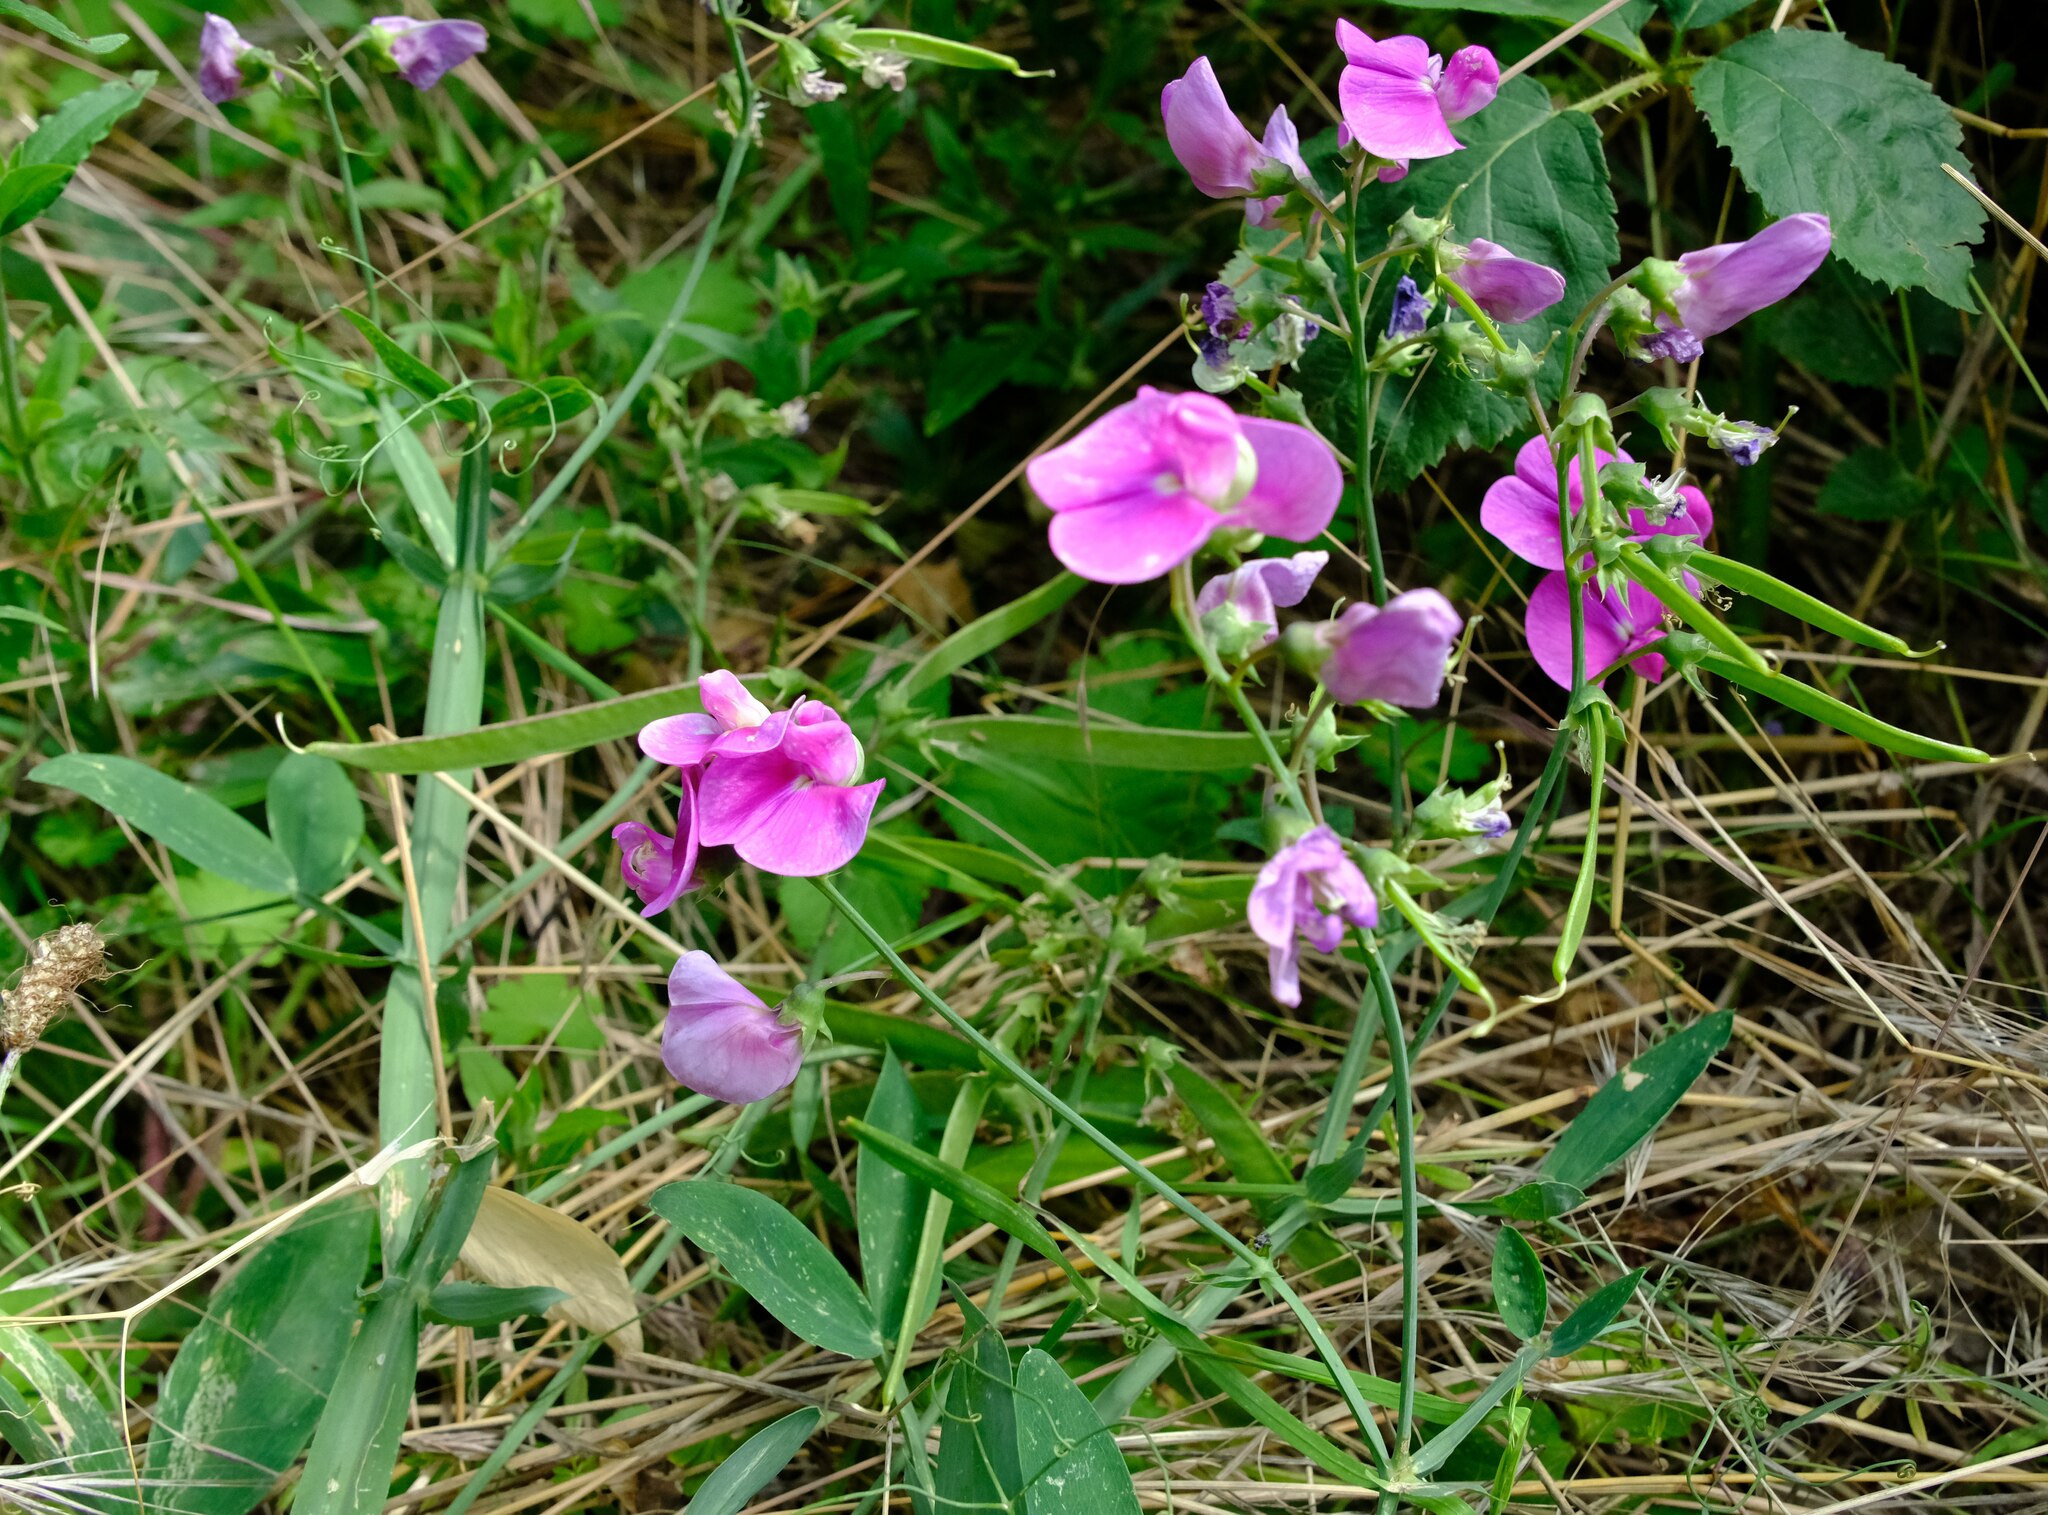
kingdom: Plantae
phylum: Tracheophyta
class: Magnoliopsida
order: Fabales
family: Fabaceae
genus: Lathyrus
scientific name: Lathyrus latifolius
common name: Perennial pea
